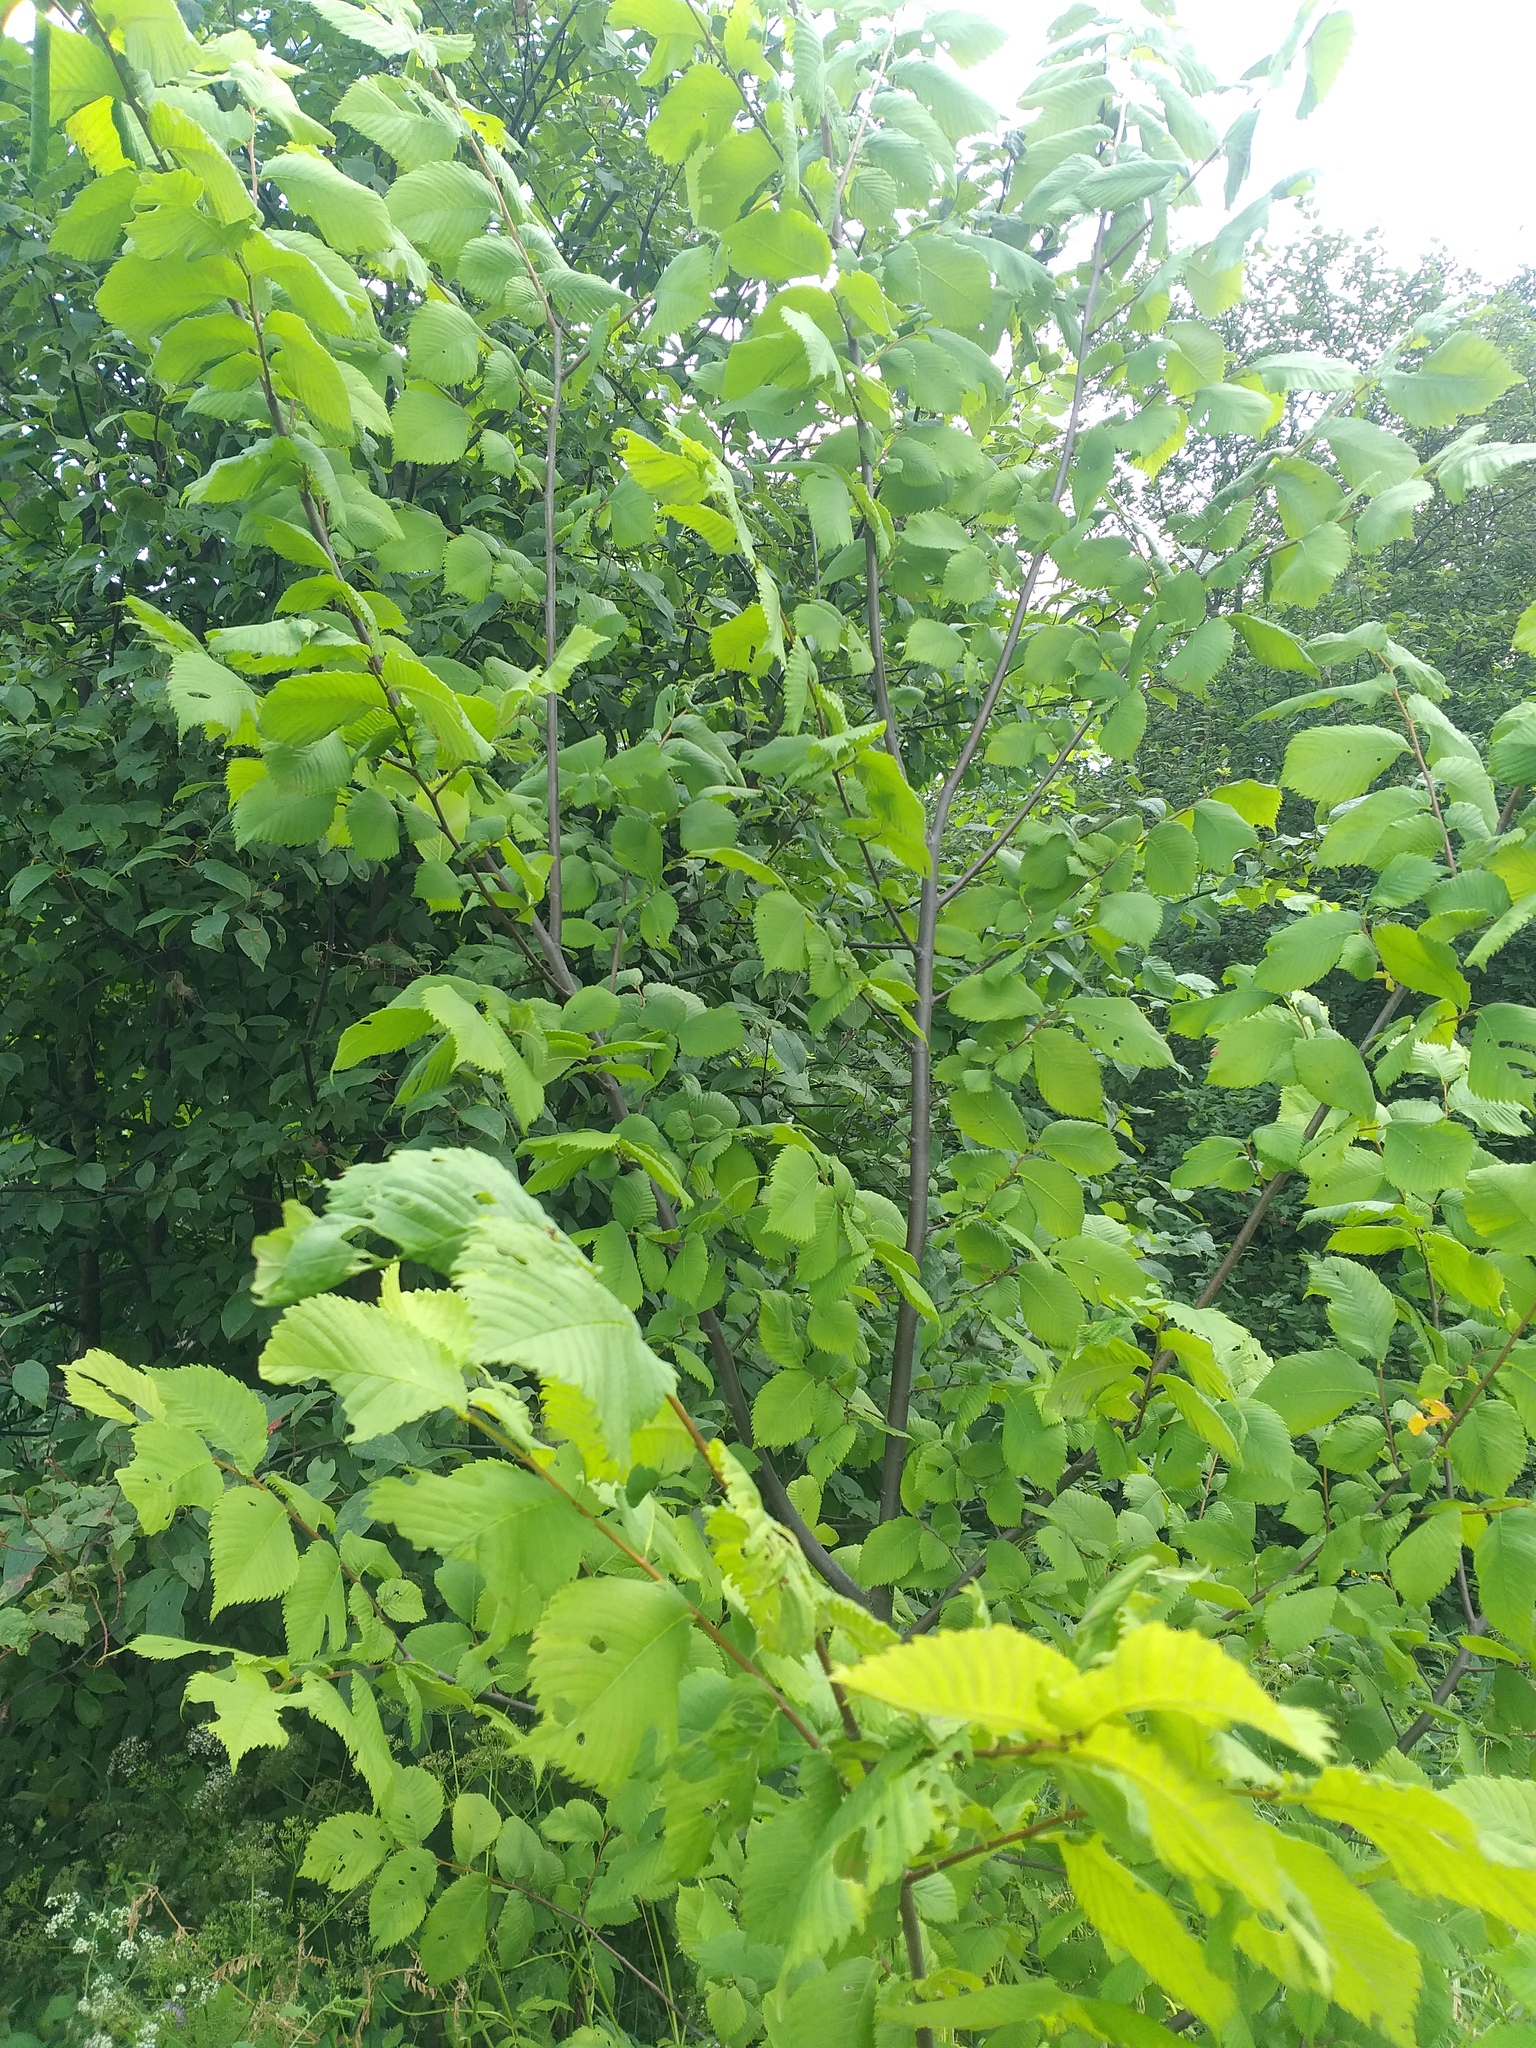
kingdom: Plantae
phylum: Tracheophyta
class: Magnoliopsida
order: Rosales
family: Ulmaceae
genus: Ulmus
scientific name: Ulmus laevis
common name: European white-elm
